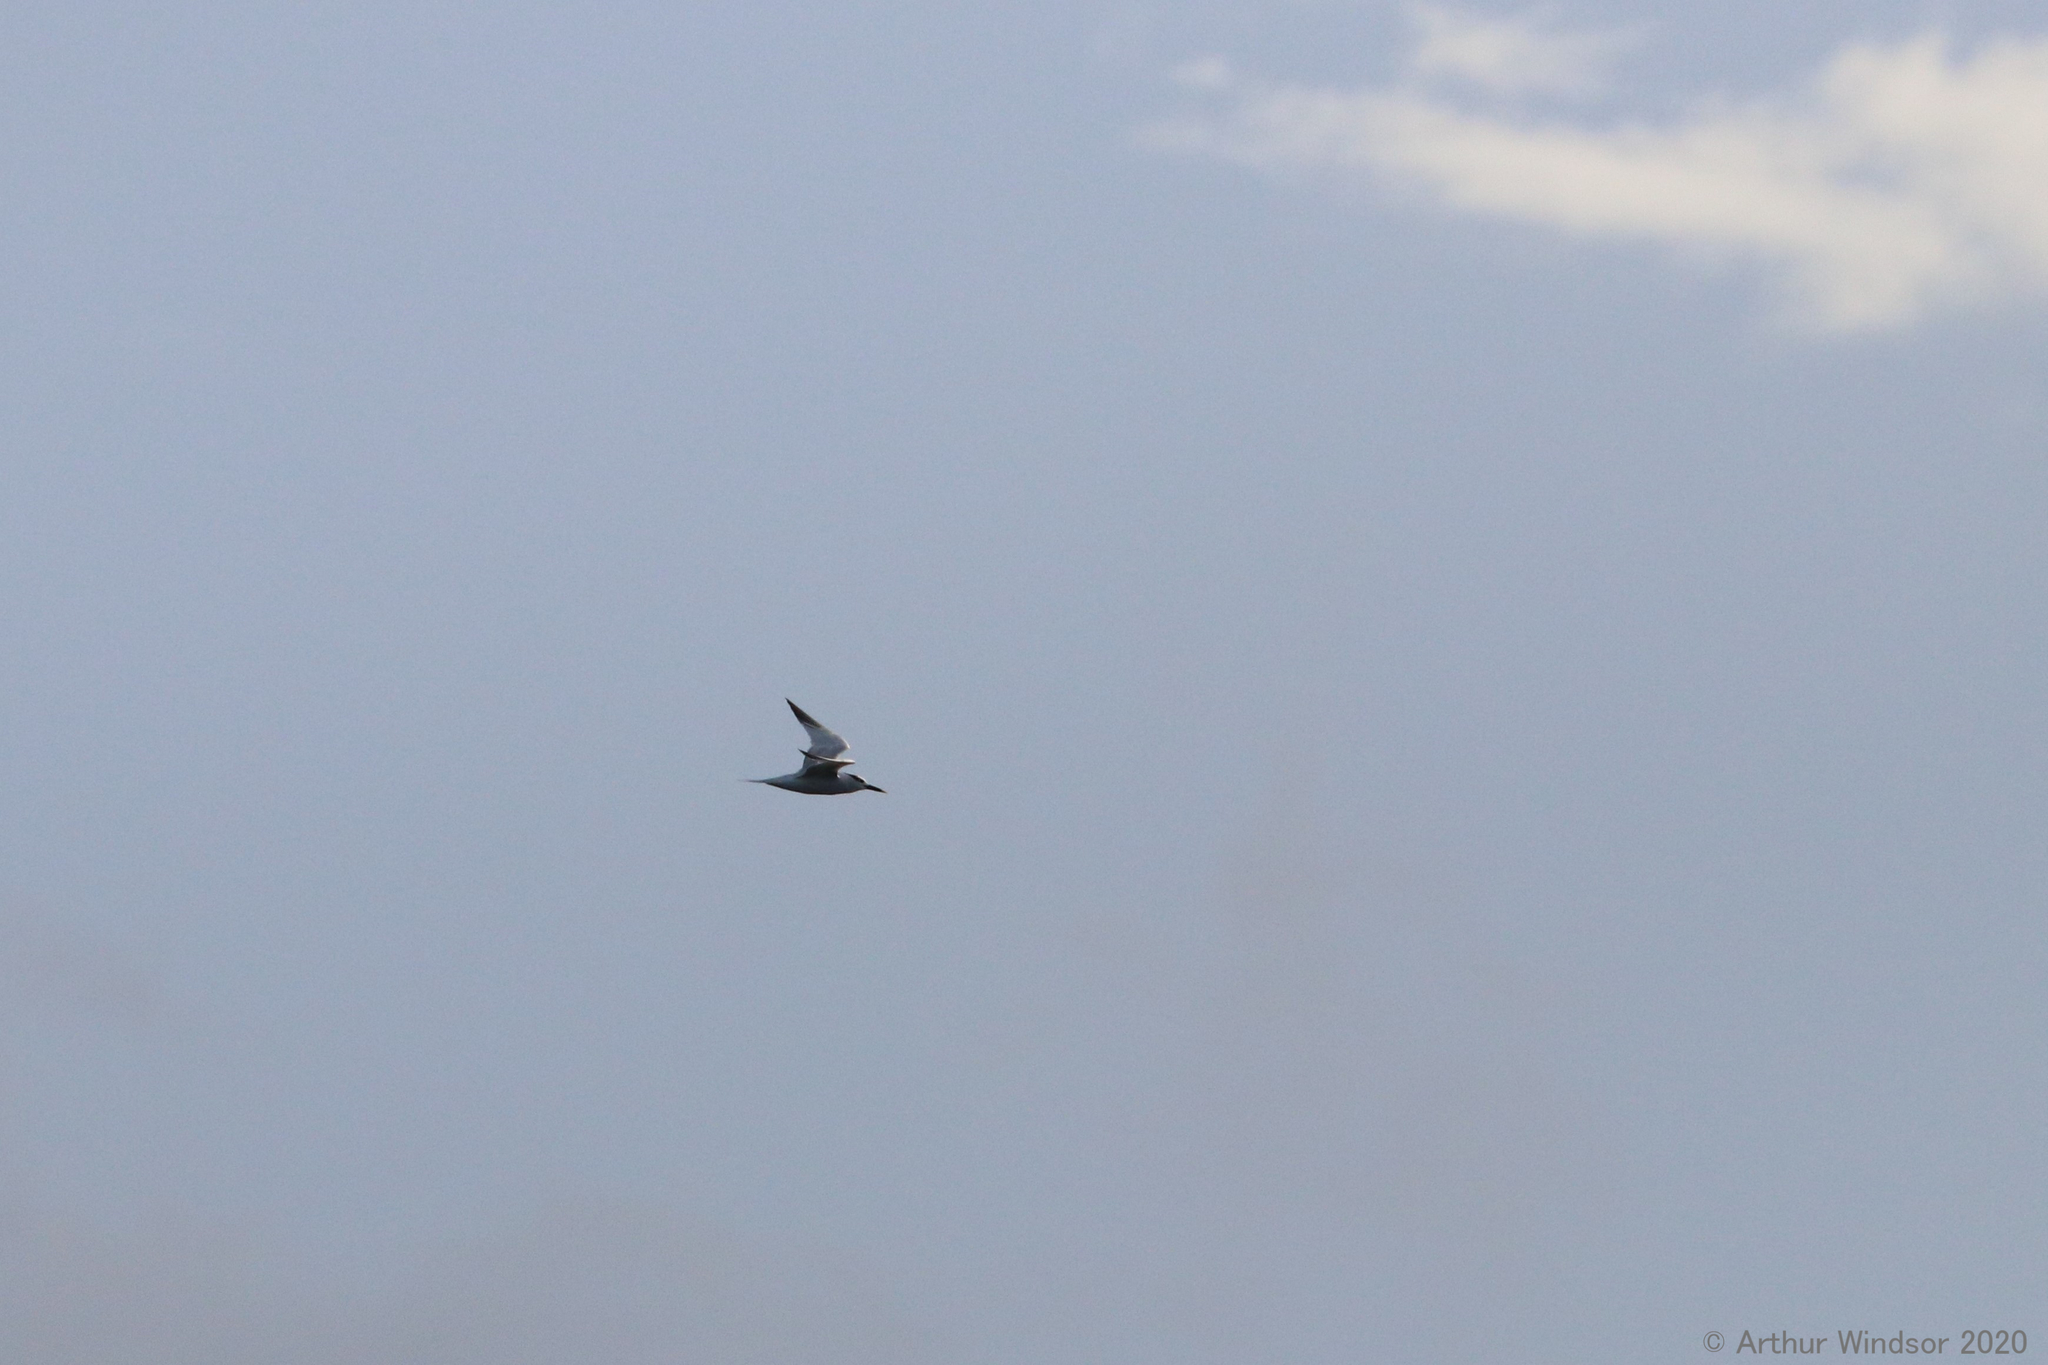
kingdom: Animalia
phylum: Chordata
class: Aves
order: Charadriiformes
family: Laridae
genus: Thalasseus
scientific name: Thalasseus sandvicensis
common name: Sandwich tern
